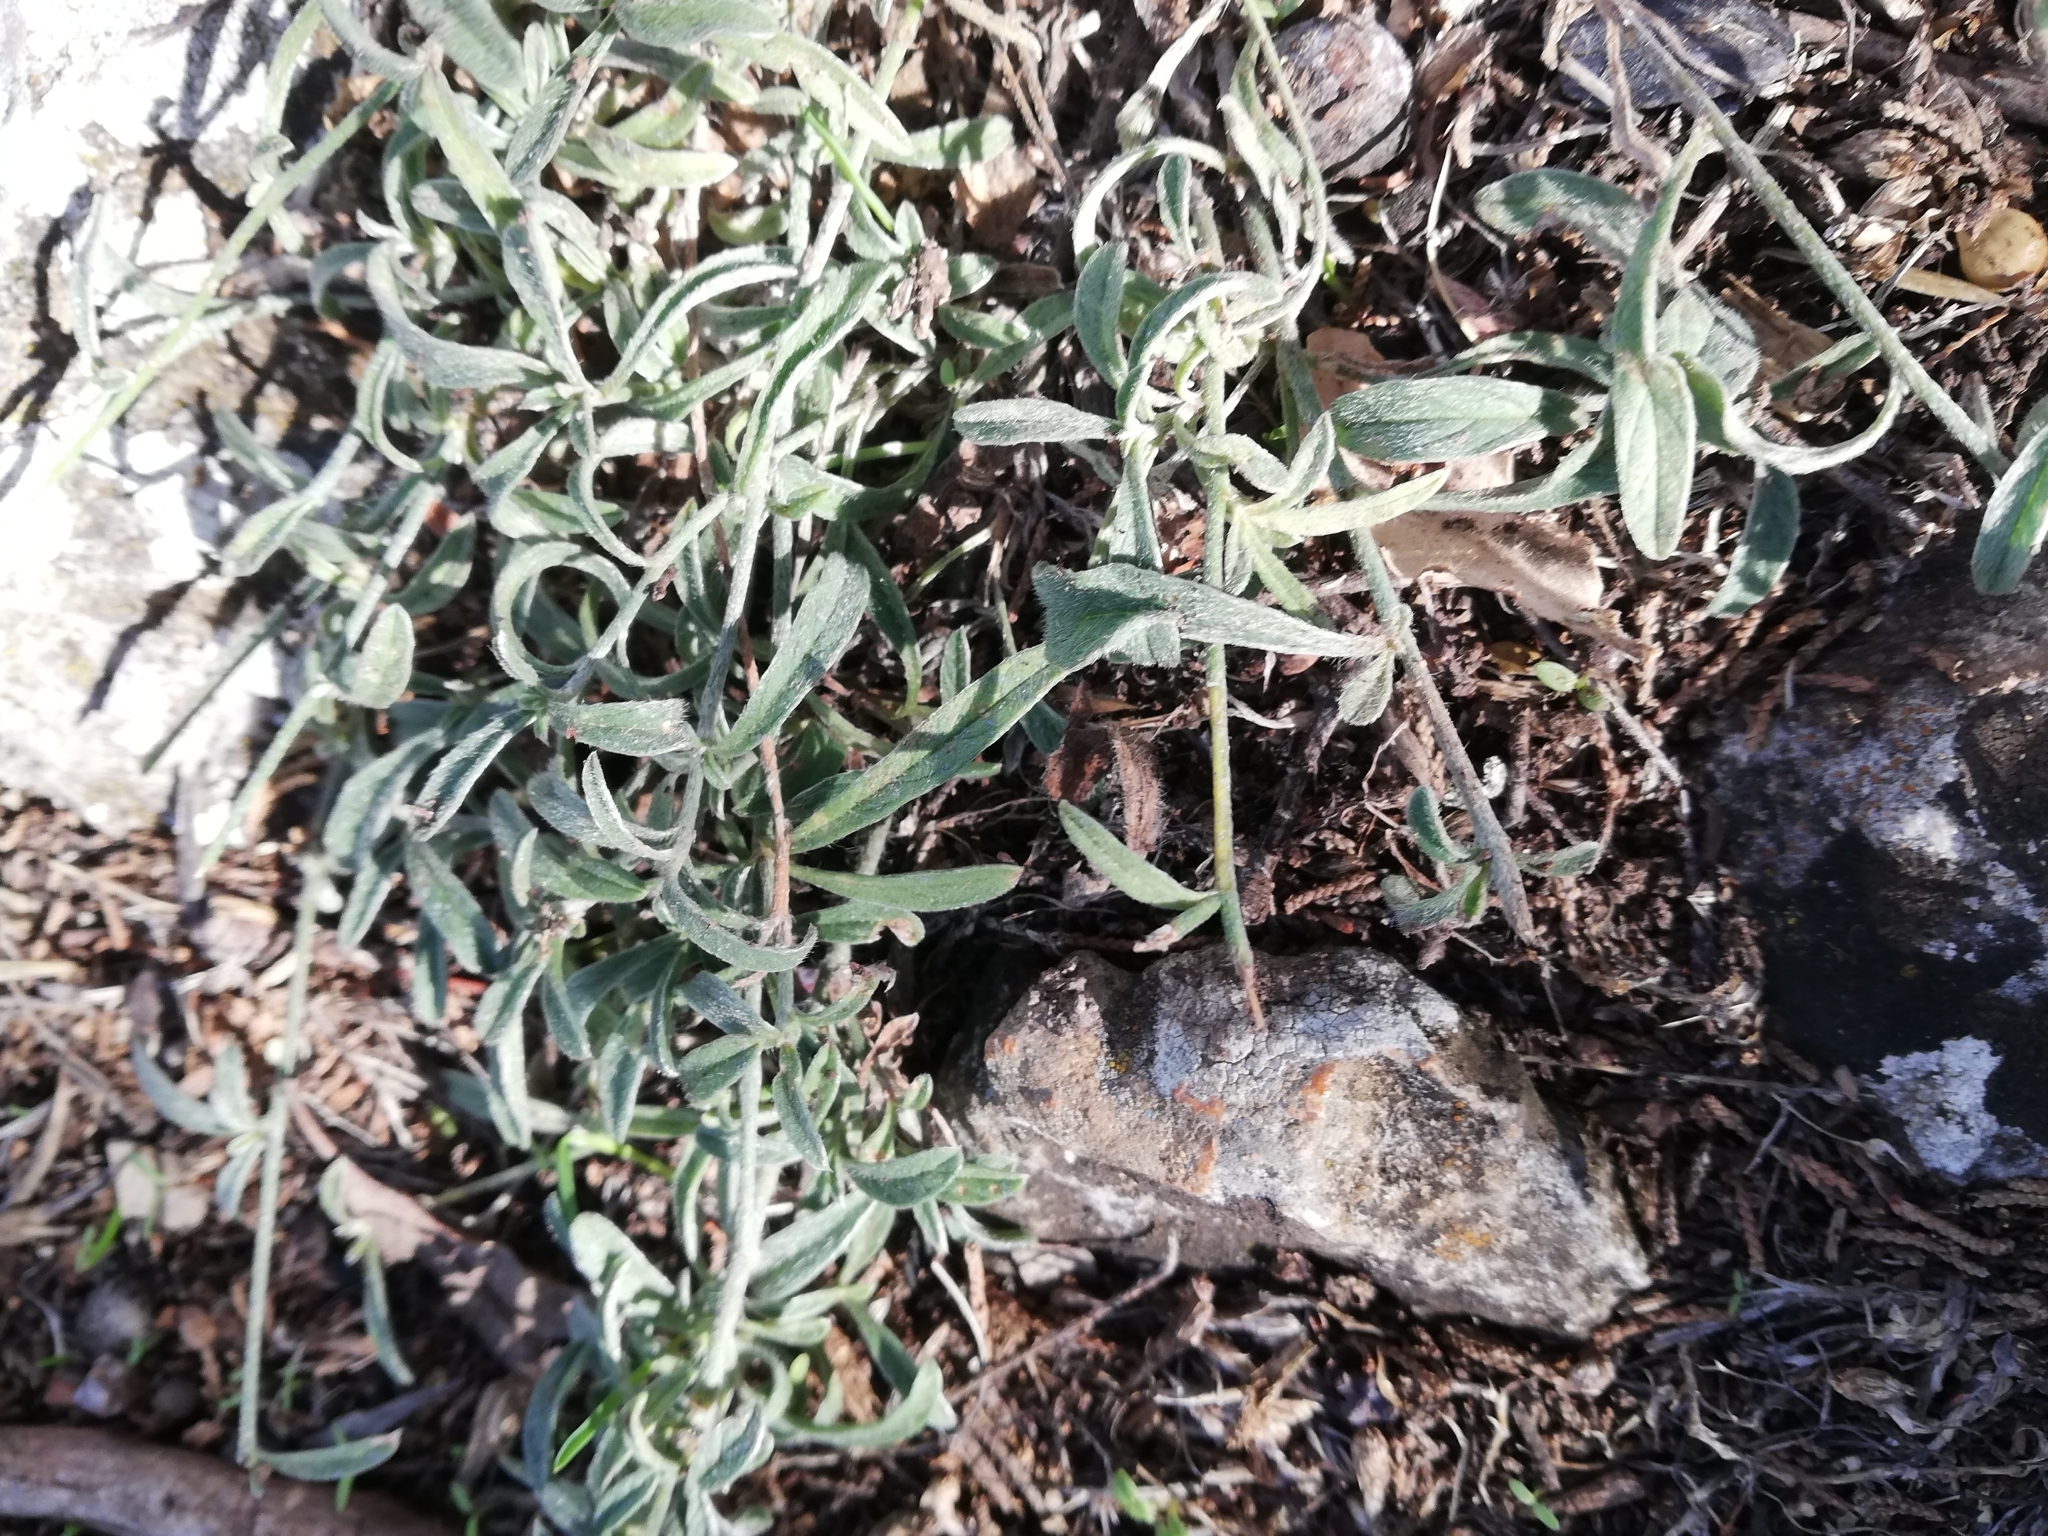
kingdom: Plantae
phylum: Tracheophyta
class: Magnoliopsida
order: Solanales
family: Convolvulaceae
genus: Convolvulus
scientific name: Convolvulus cantabrica
